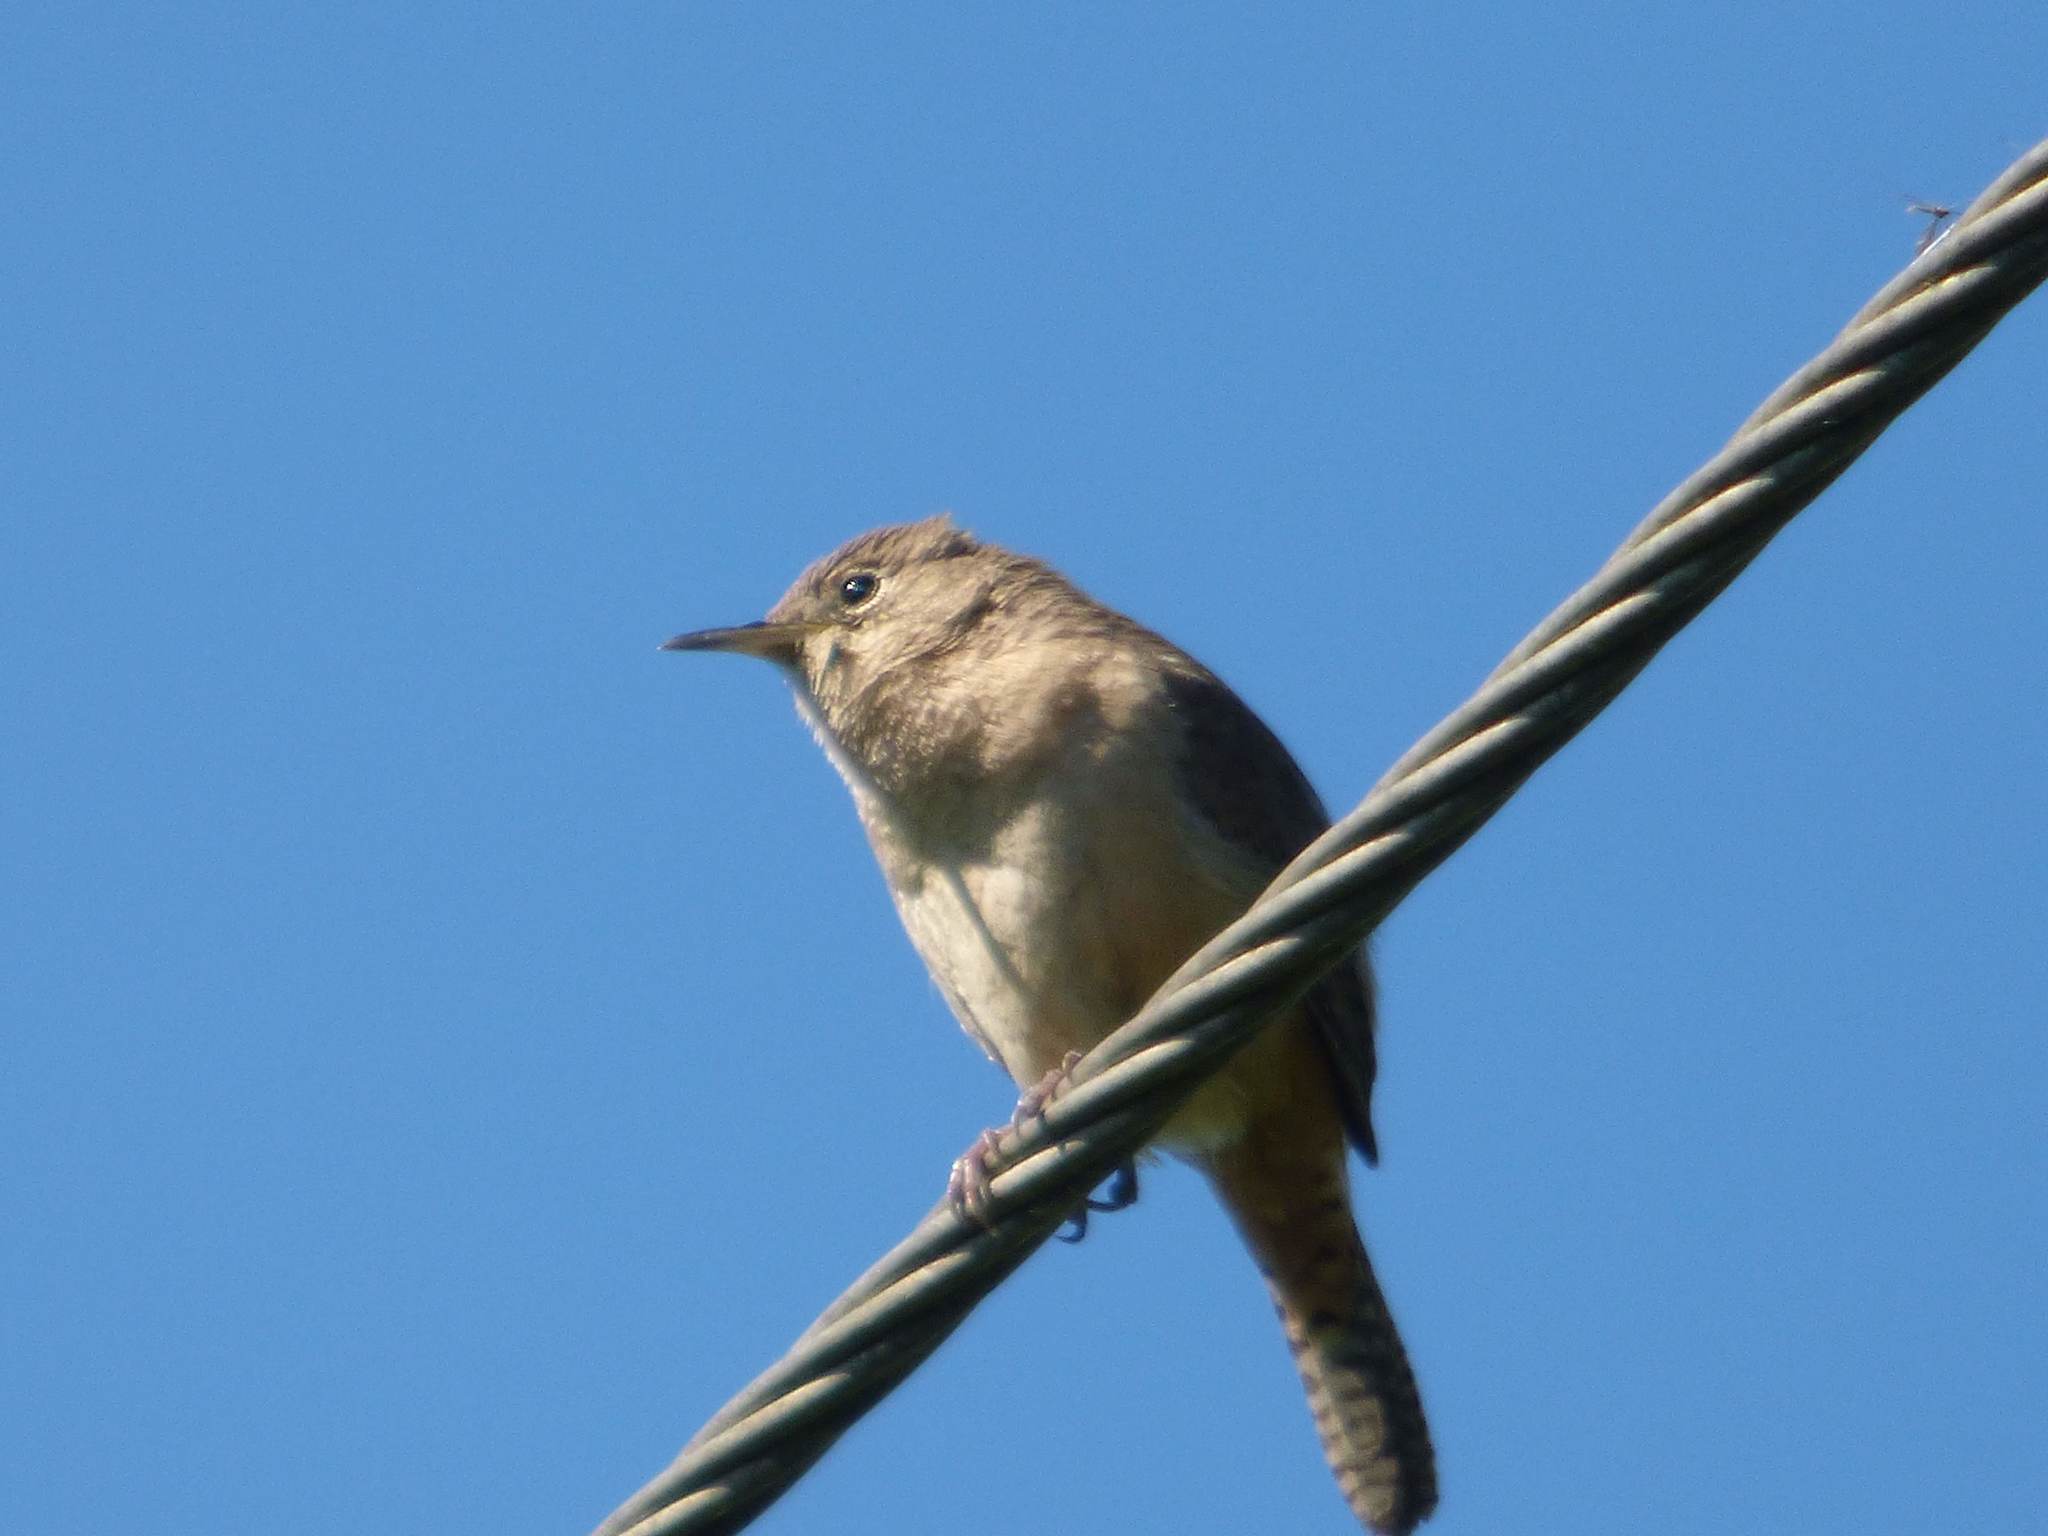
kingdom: Animalia
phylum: Chordata
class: Aves
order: Passeriformes
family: Troglodytidae
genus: Troglodytes
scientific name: Troglodytes aedon
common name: House wren
